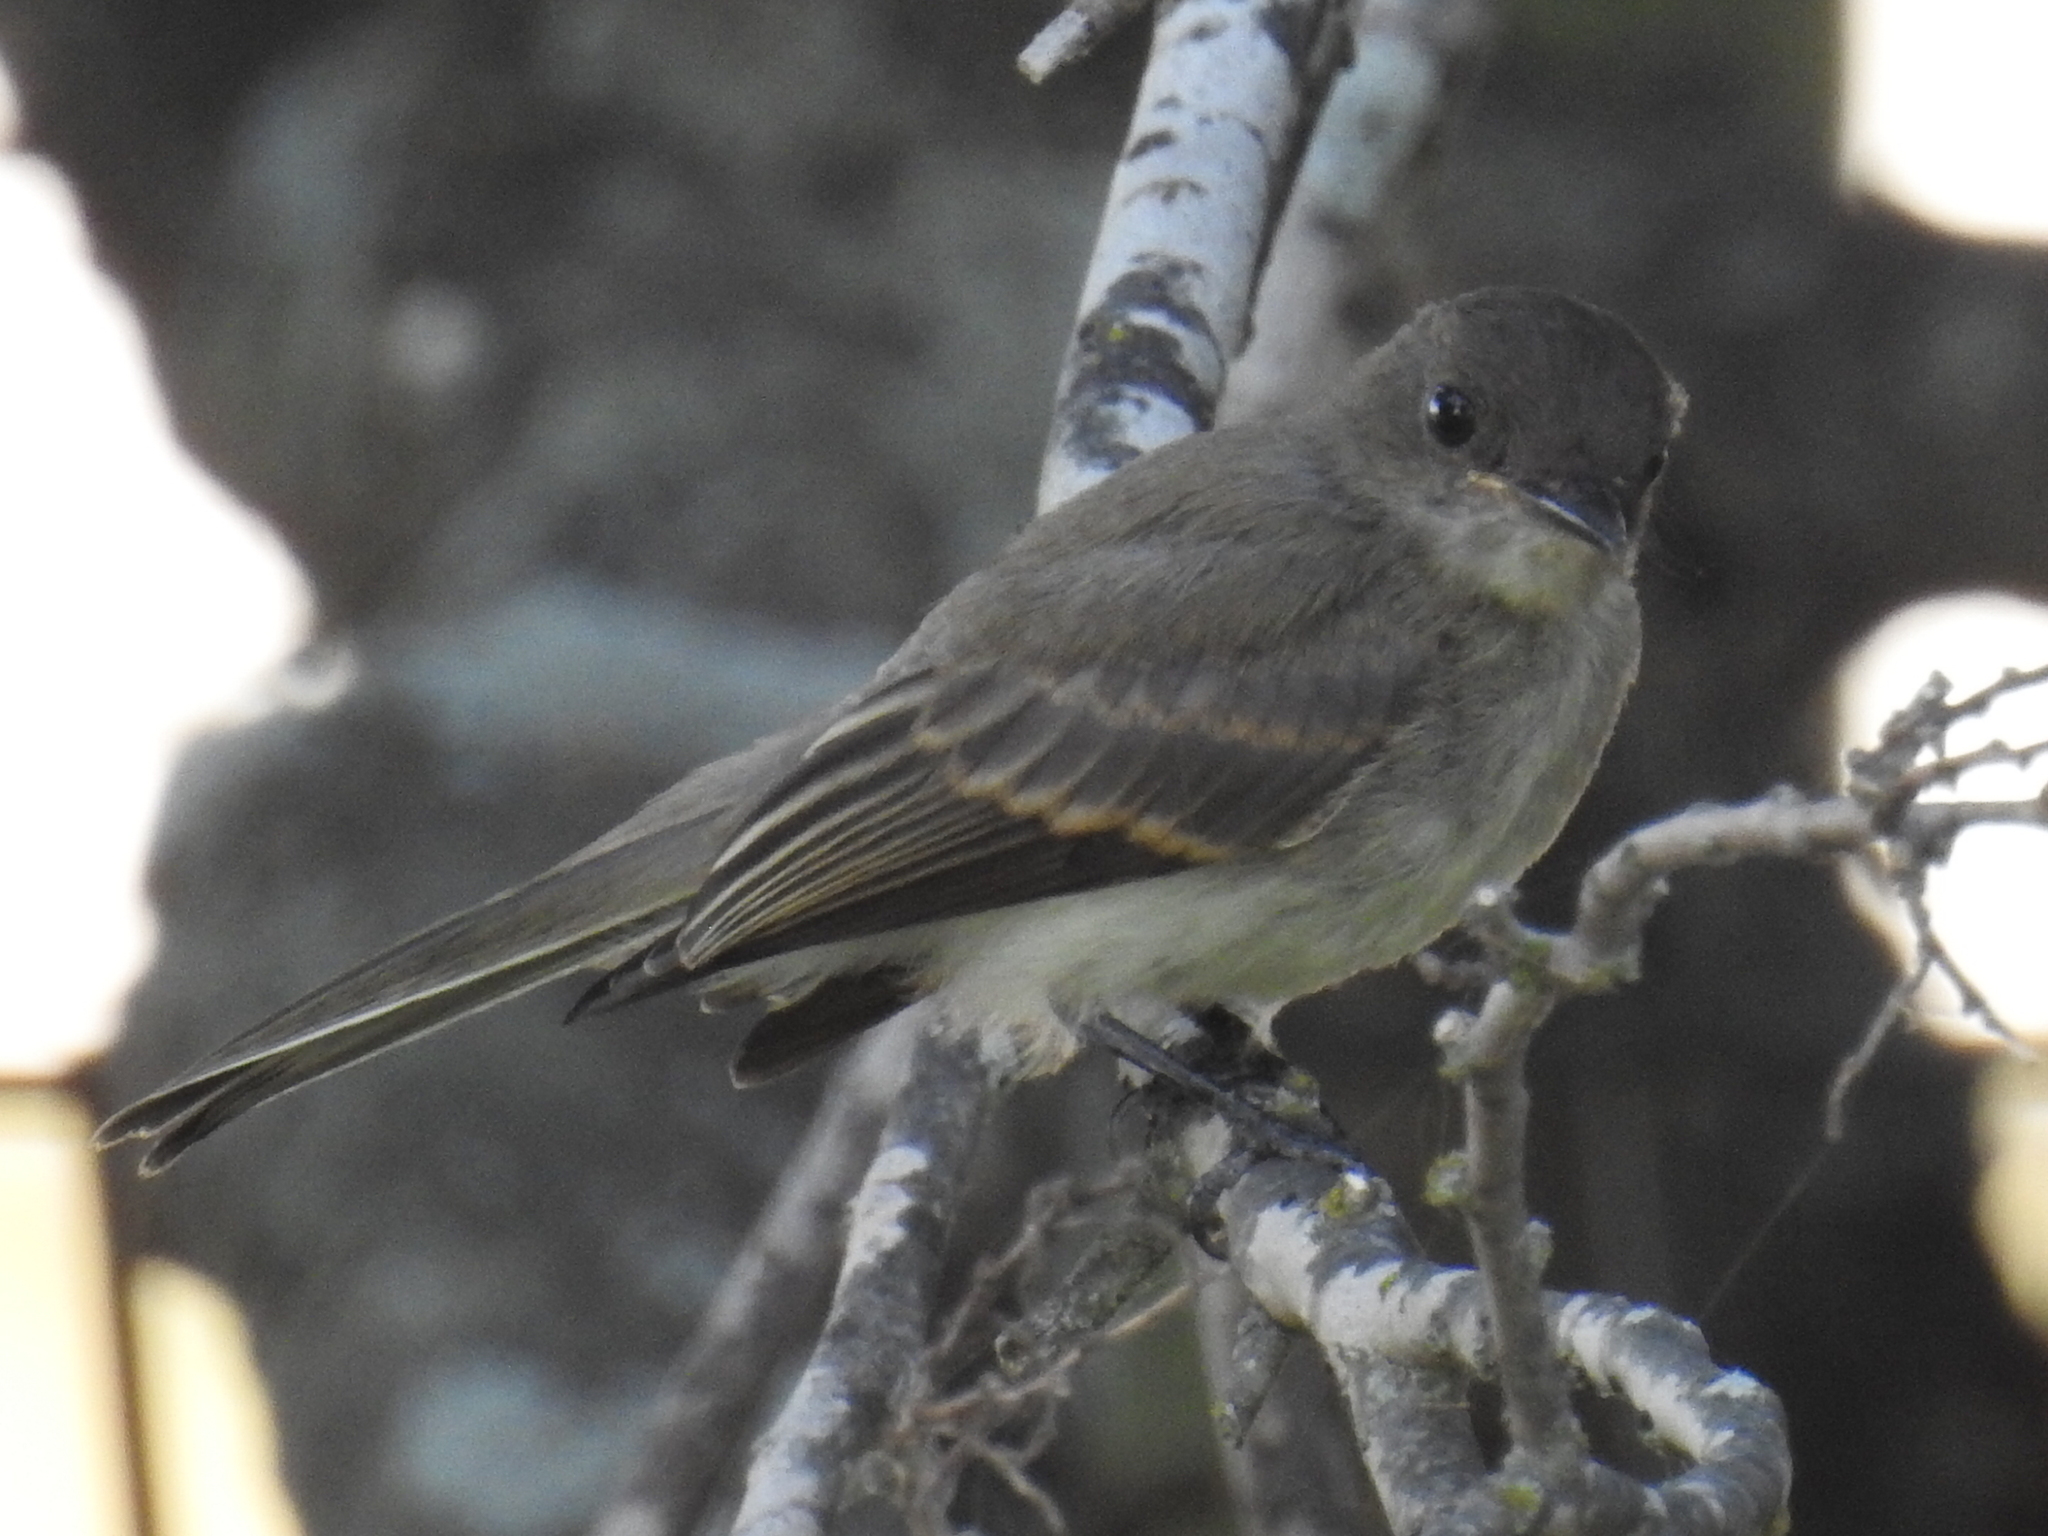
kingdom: Animalia
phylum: Chordata
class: Aves
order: Passeriformes
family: Tyrannidae
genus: Sayornis
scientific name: Sayornis phoebe
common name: Eastern phoebe
